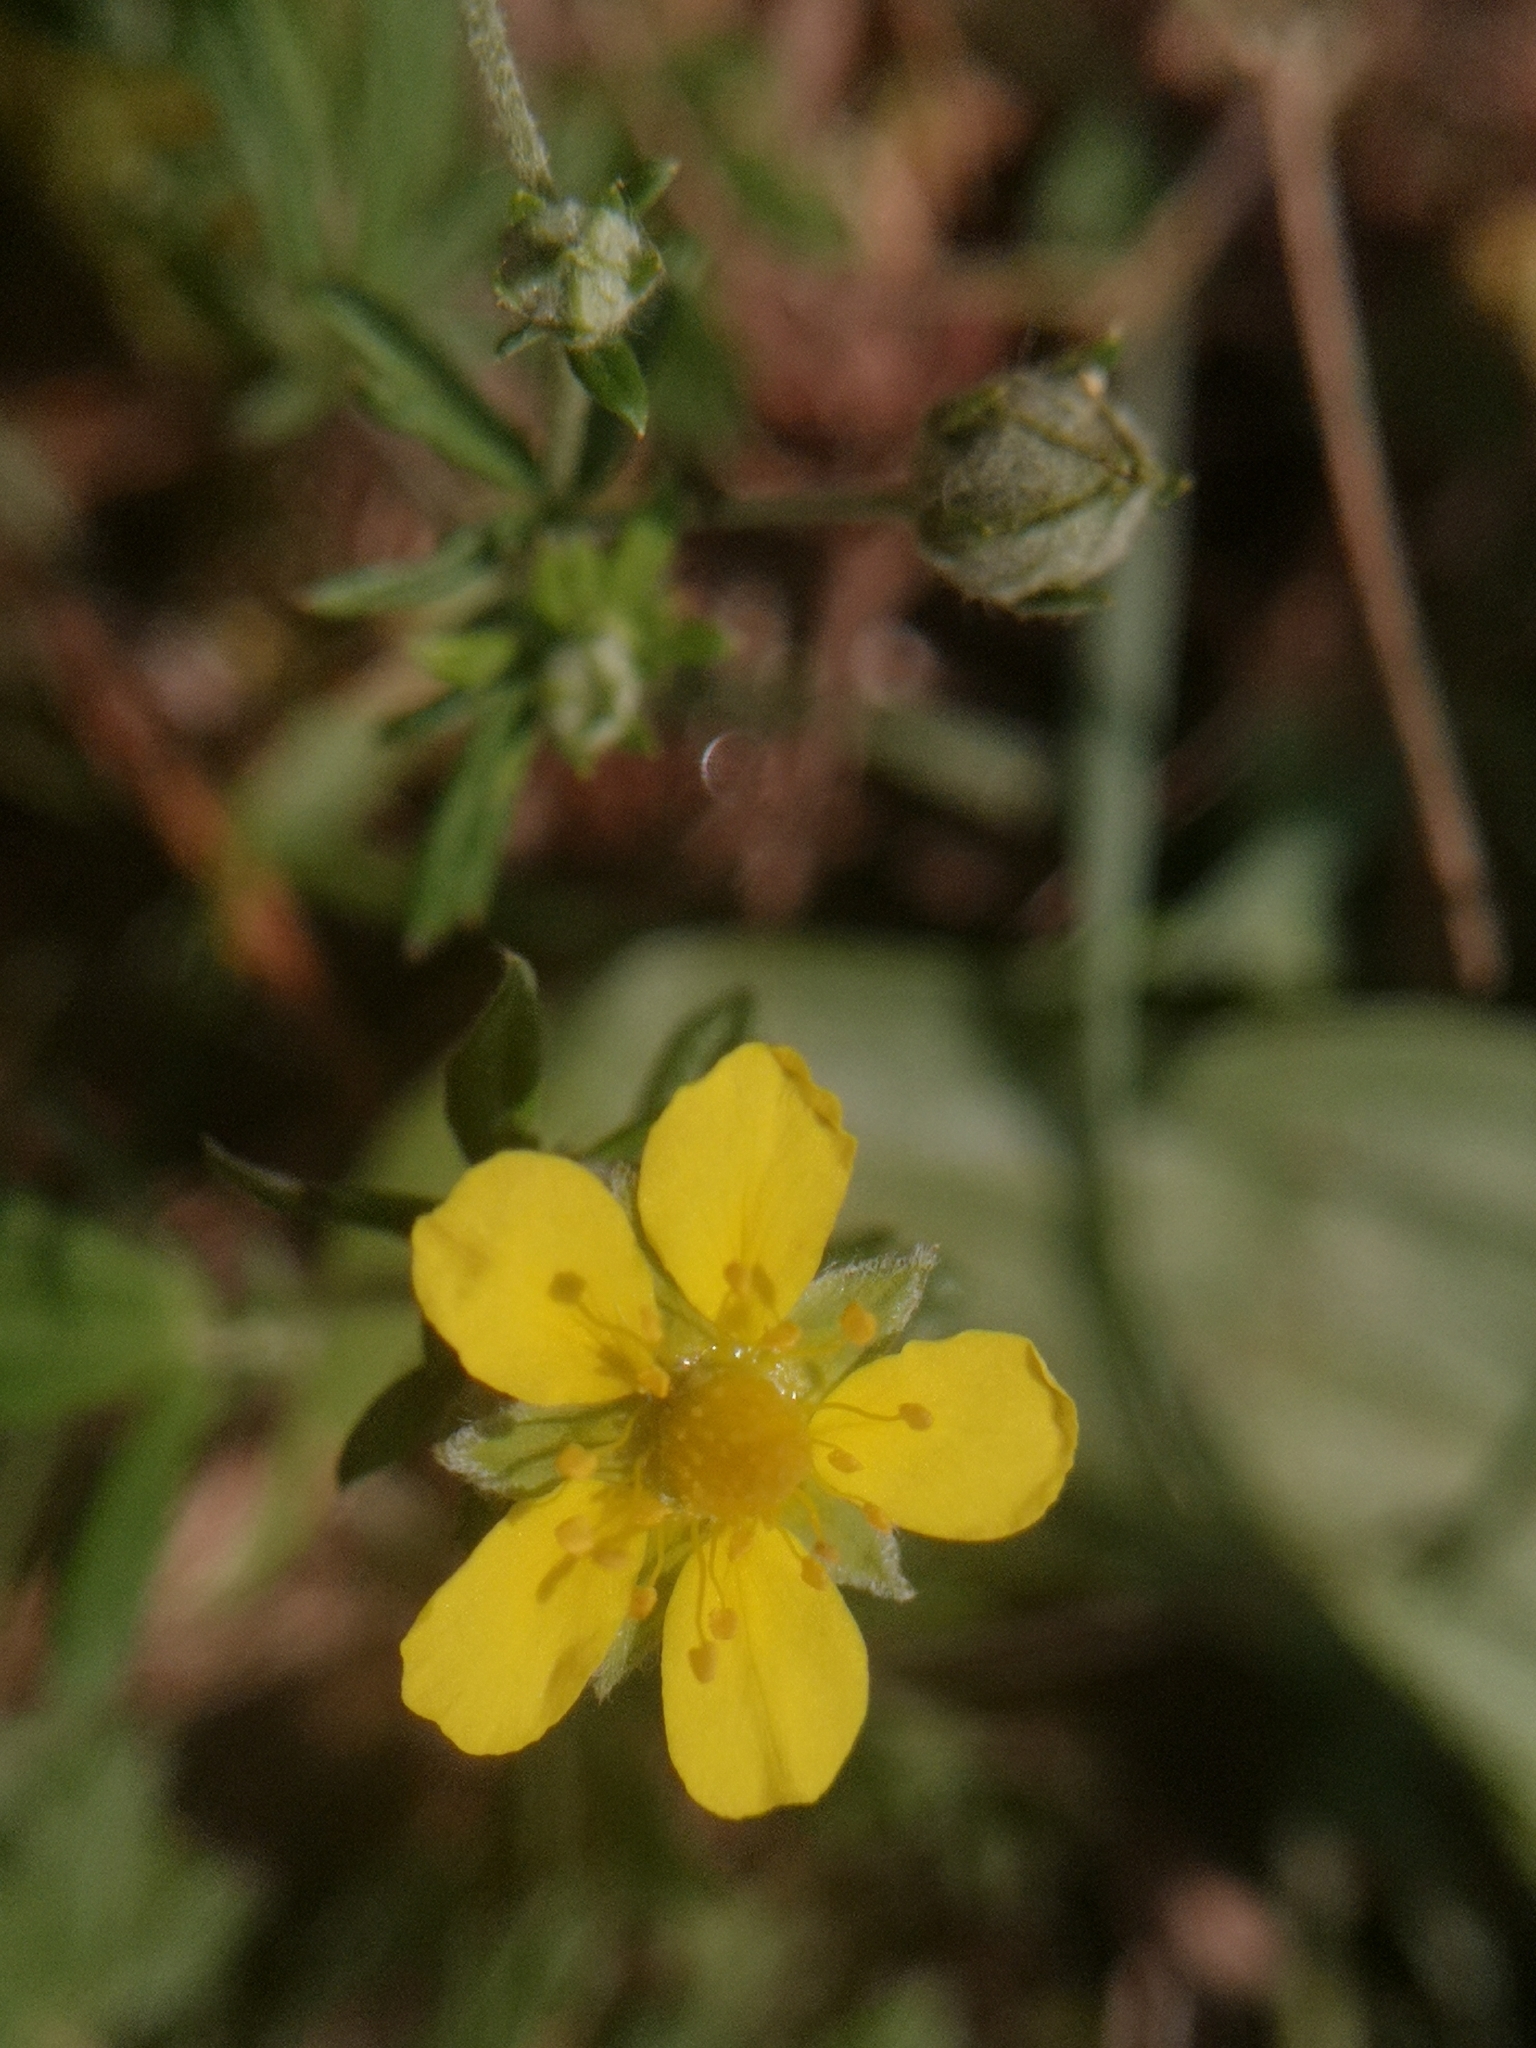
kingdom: Plantae
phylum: Tracheophyta
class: Magnoliopsida
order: Rosales
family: Rosaceae
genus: Potentilla
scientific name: Potentilla argentea
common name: Hoary cinquefoil
